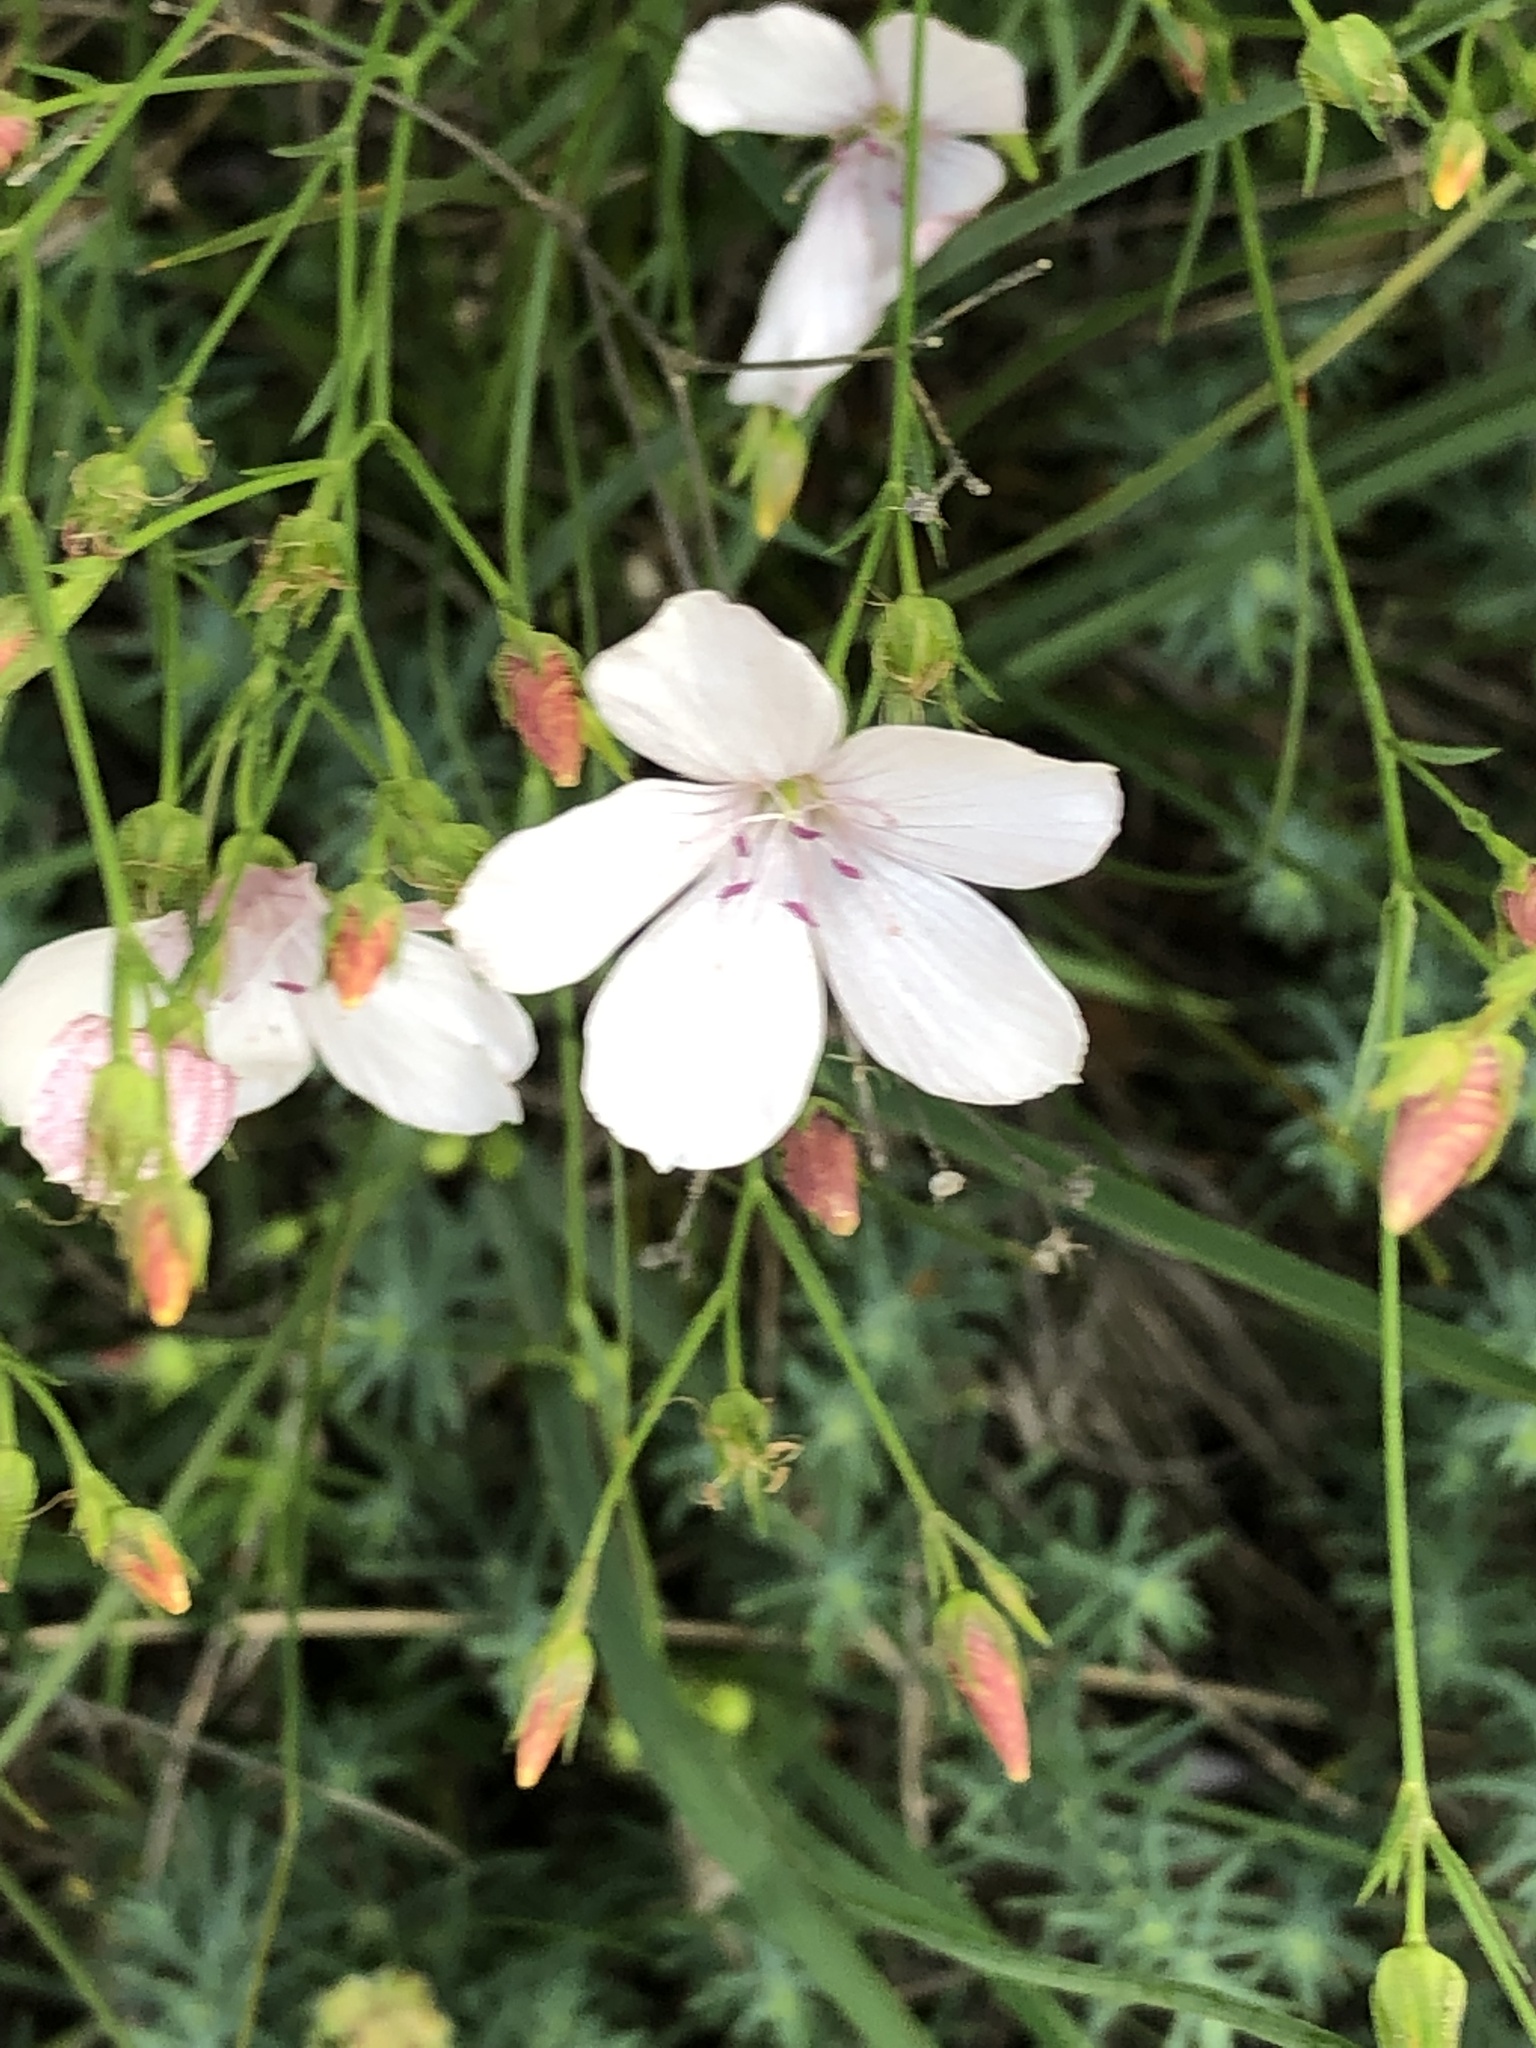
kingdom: Plantae
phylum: Tracheophyta
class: Magnoliopsida
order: Malpighiales
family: Linaceae
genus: Linum
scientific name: Linum tenuifolium
